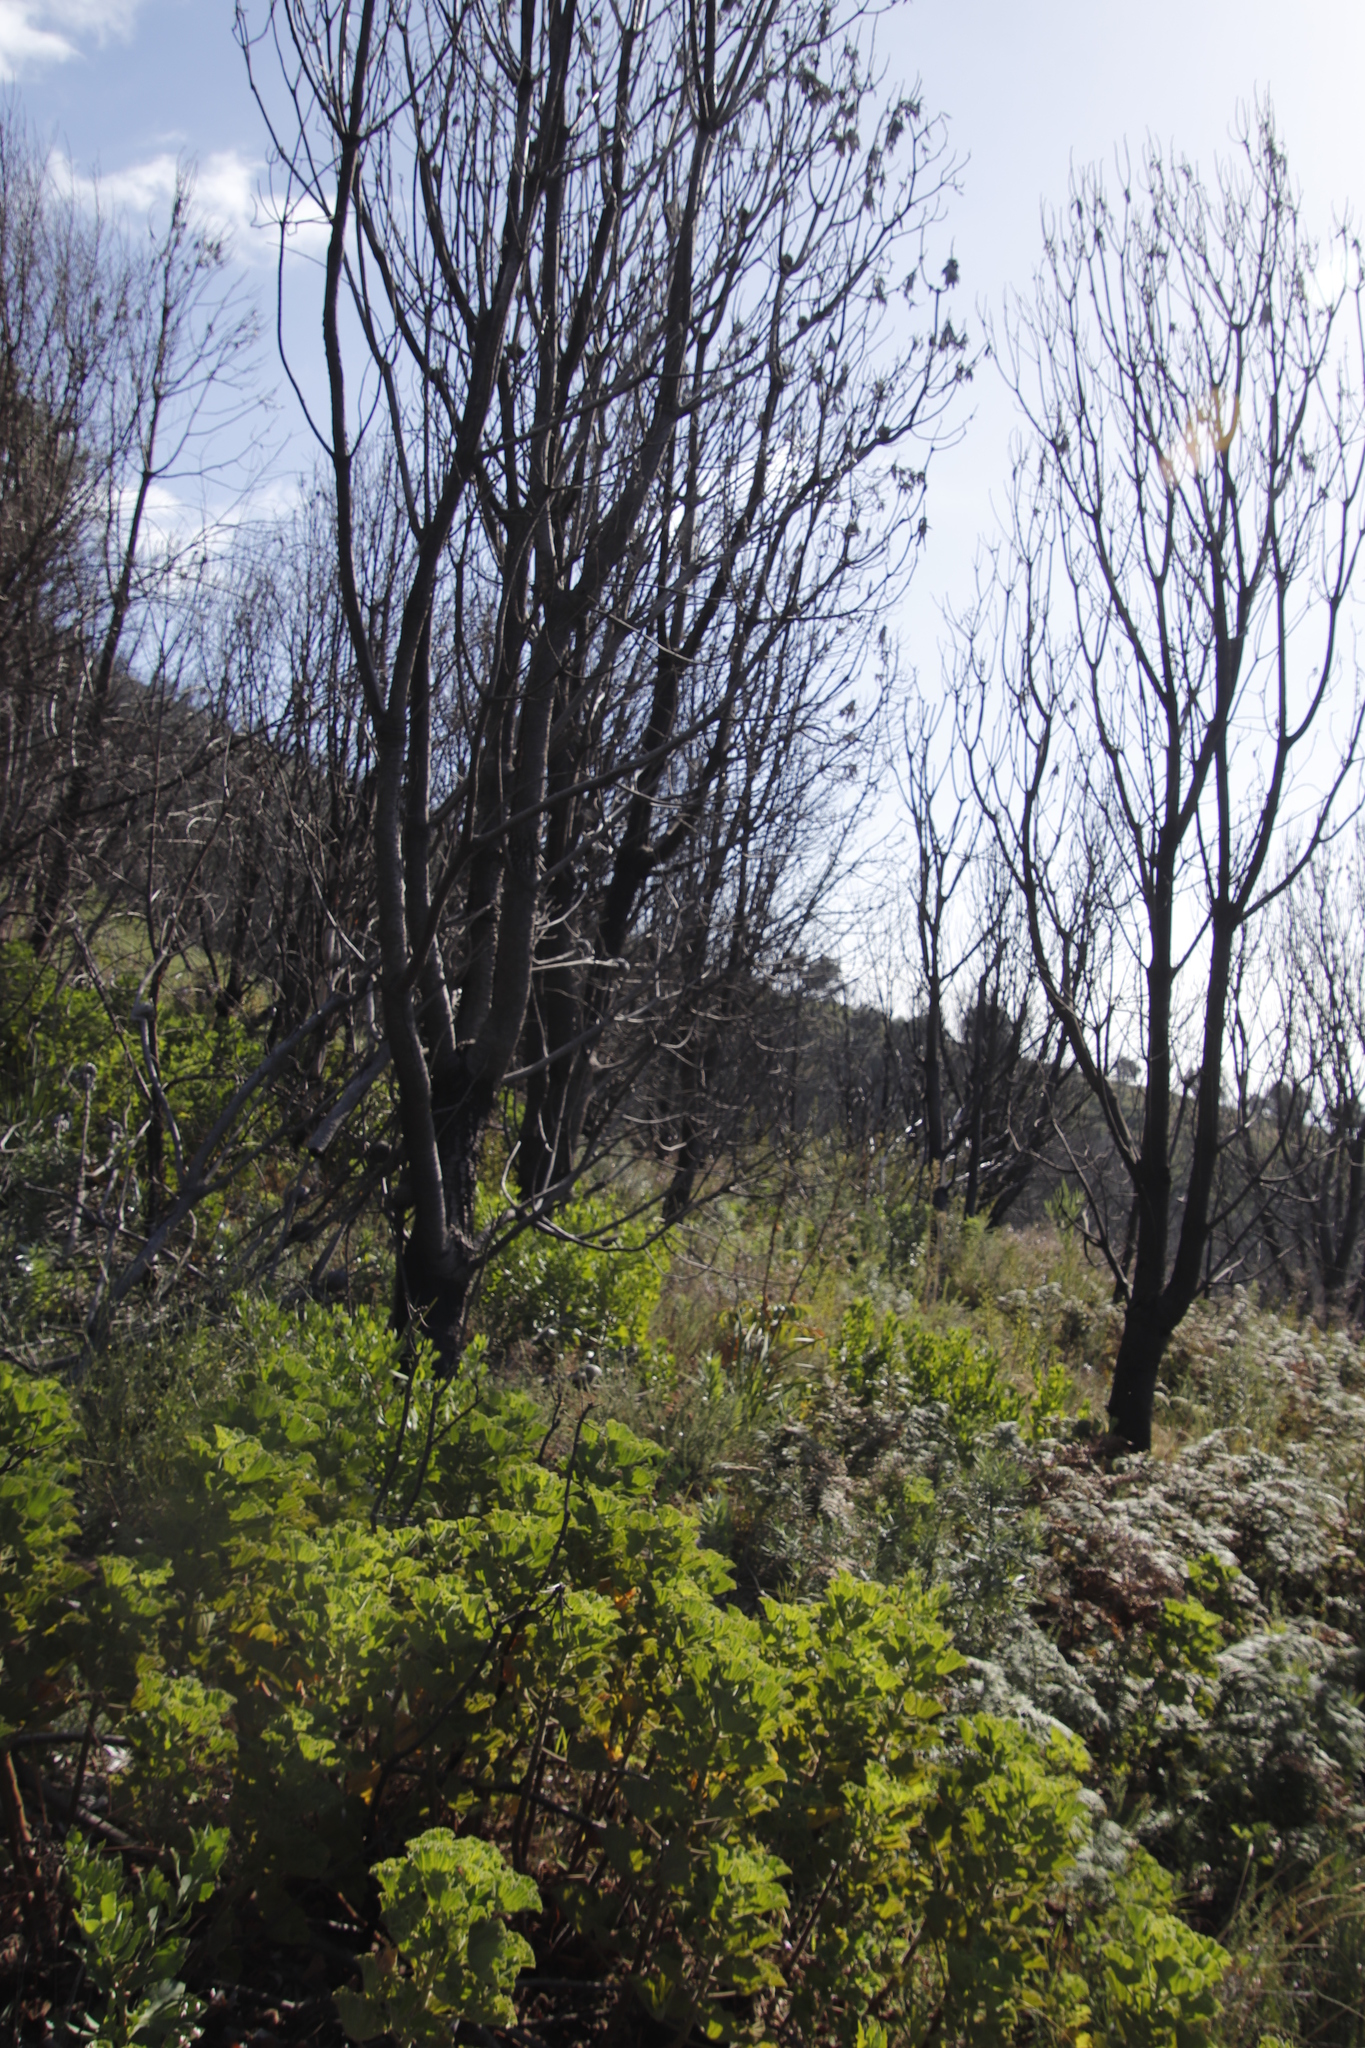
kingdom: Plantae
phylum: Tracheophyta
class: Magnoliopsida
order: Geraniales
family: Geraniaceae
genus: Pelargonium
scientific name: Pelargonium cucullatum
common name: Tree pelargonium
